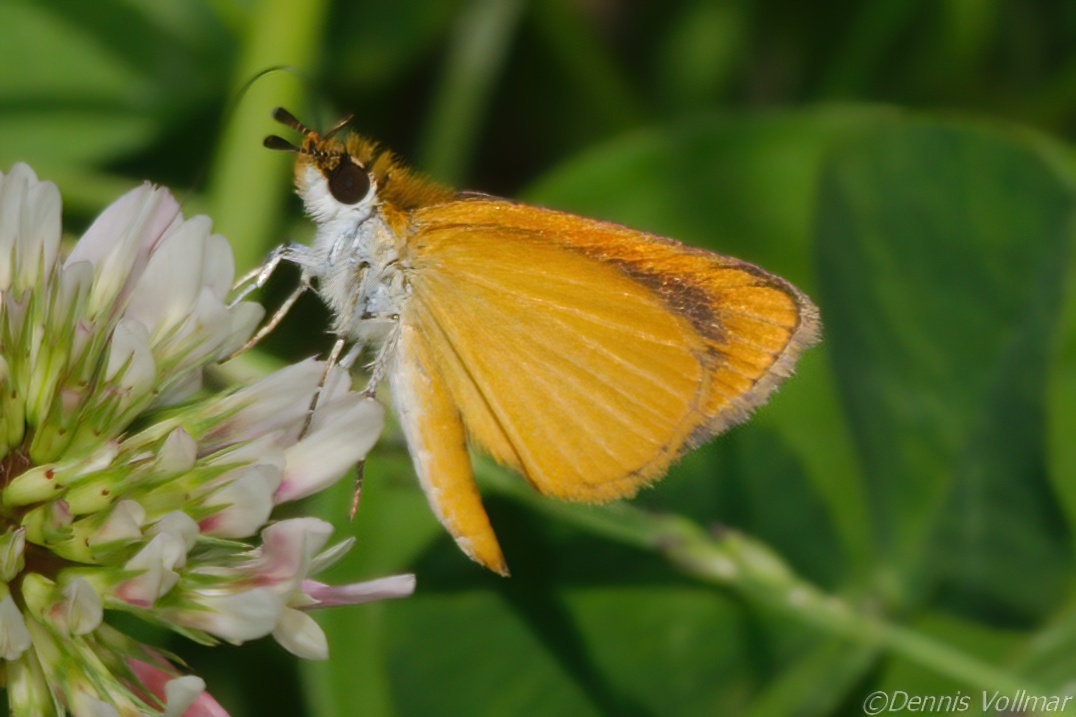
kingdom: Animalia
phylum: Arthropoda
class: Insecta
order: Lepidoptera
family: Hesperiidae
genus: Ancyloxypha
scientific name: Ancyloxypha numitor
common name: Least skipper
